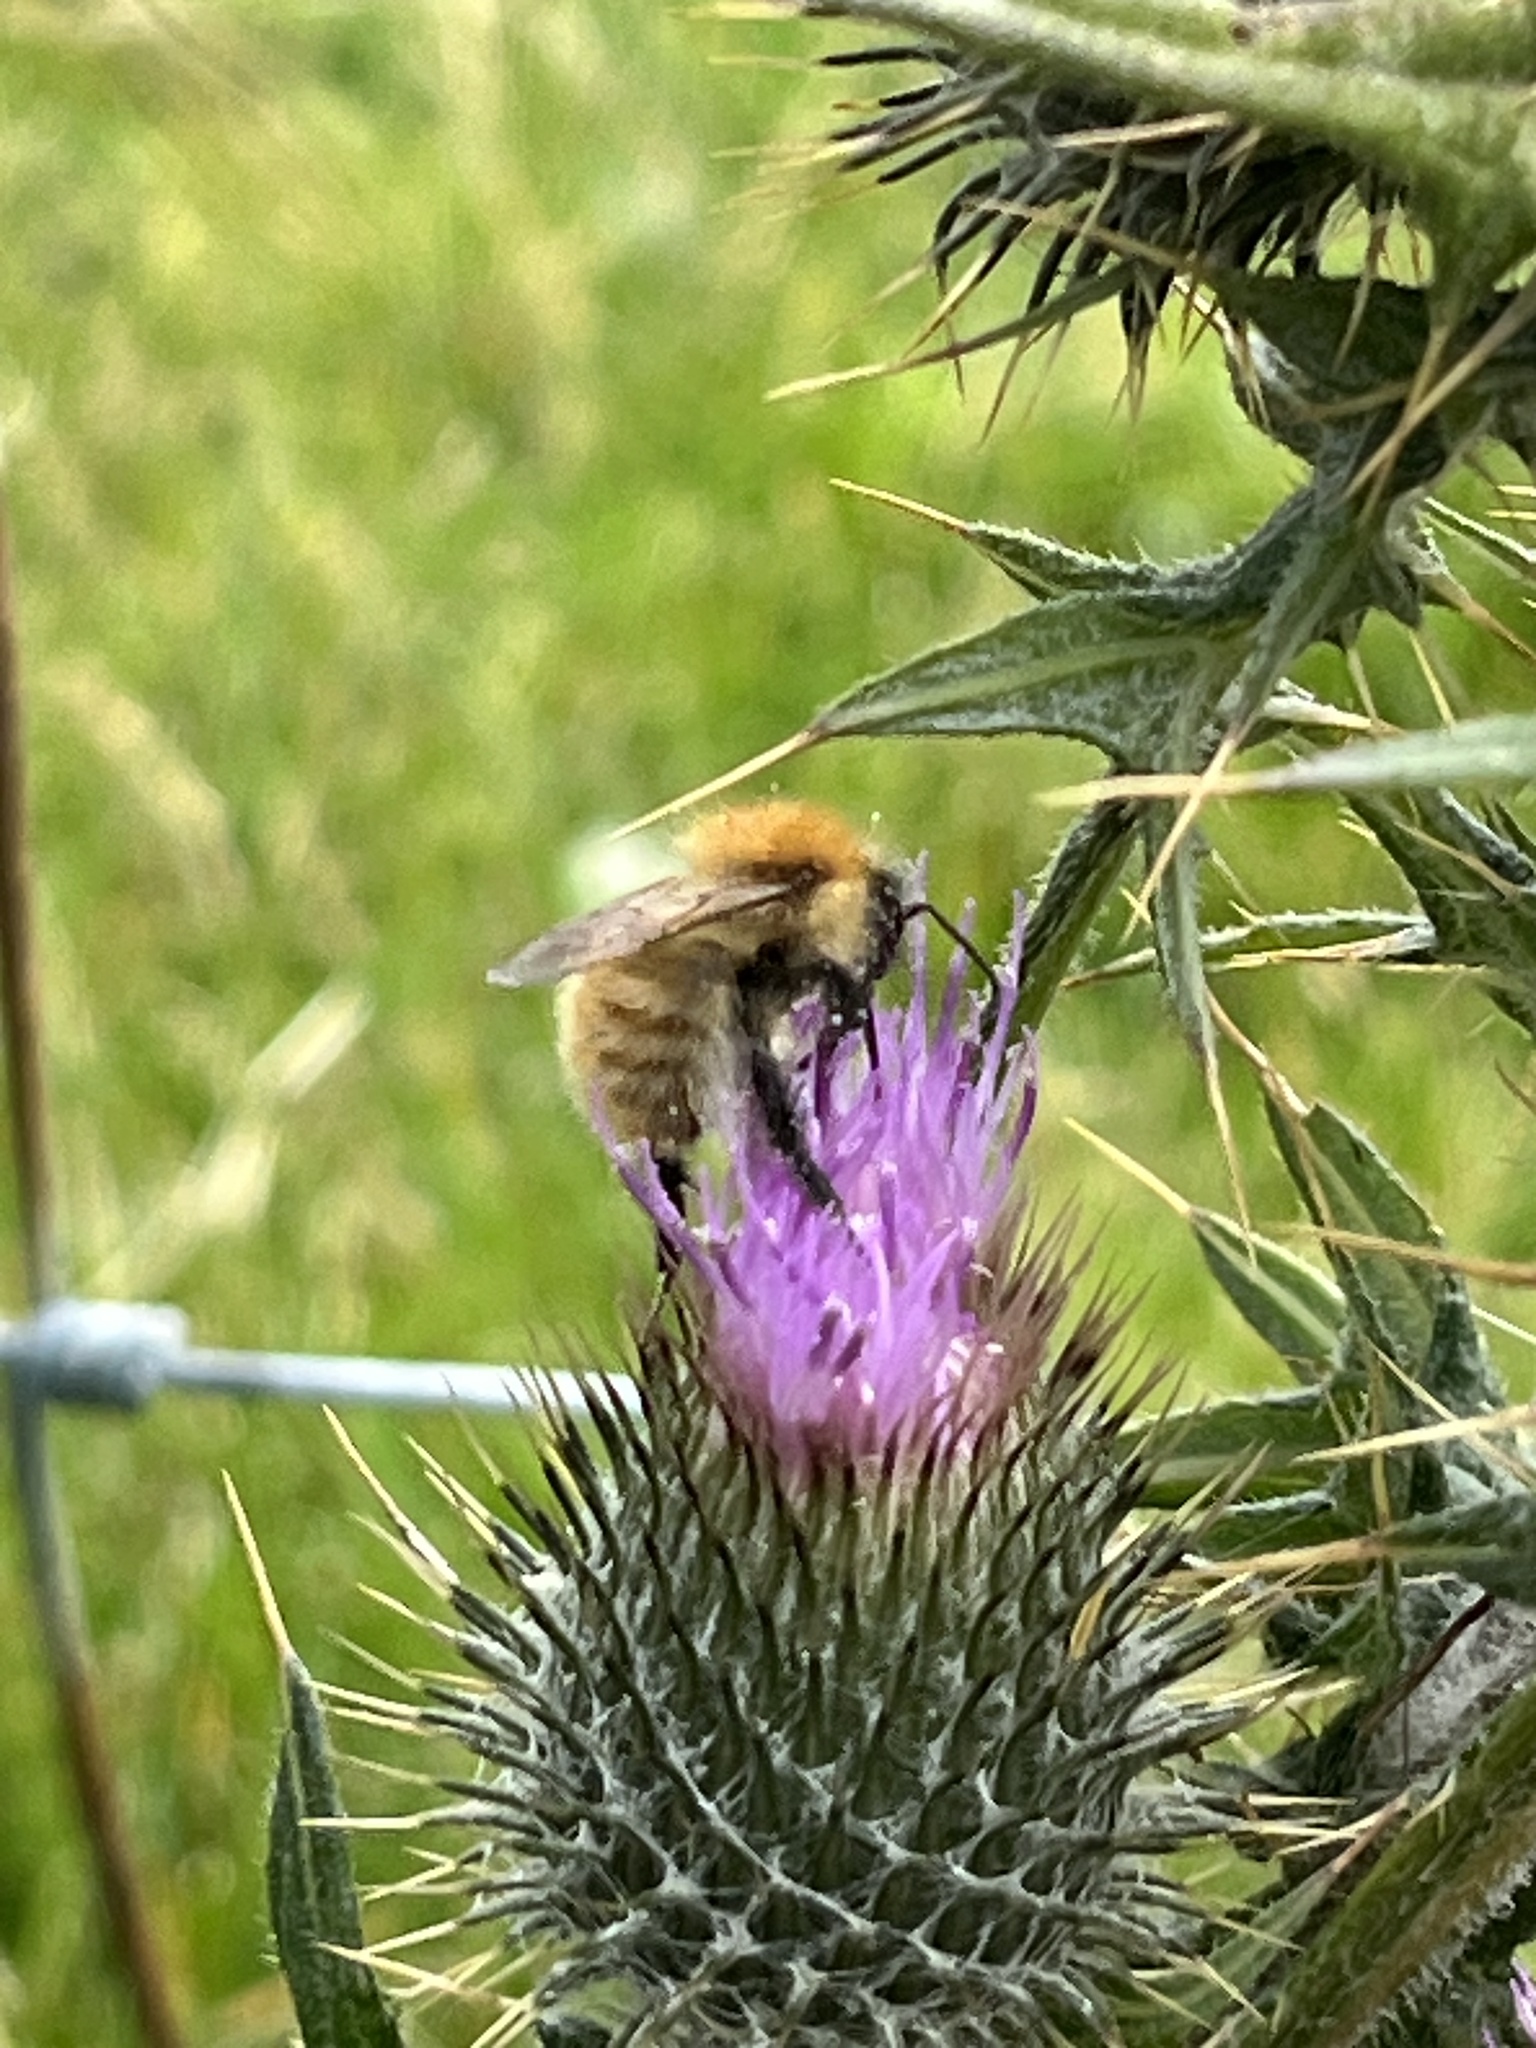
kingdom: Animalia
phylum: Arthropoda
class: Insecta
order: Hymenoptera
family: Apidae
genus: Bombus
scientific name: Bombus pascuorum
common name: Common carder bee
